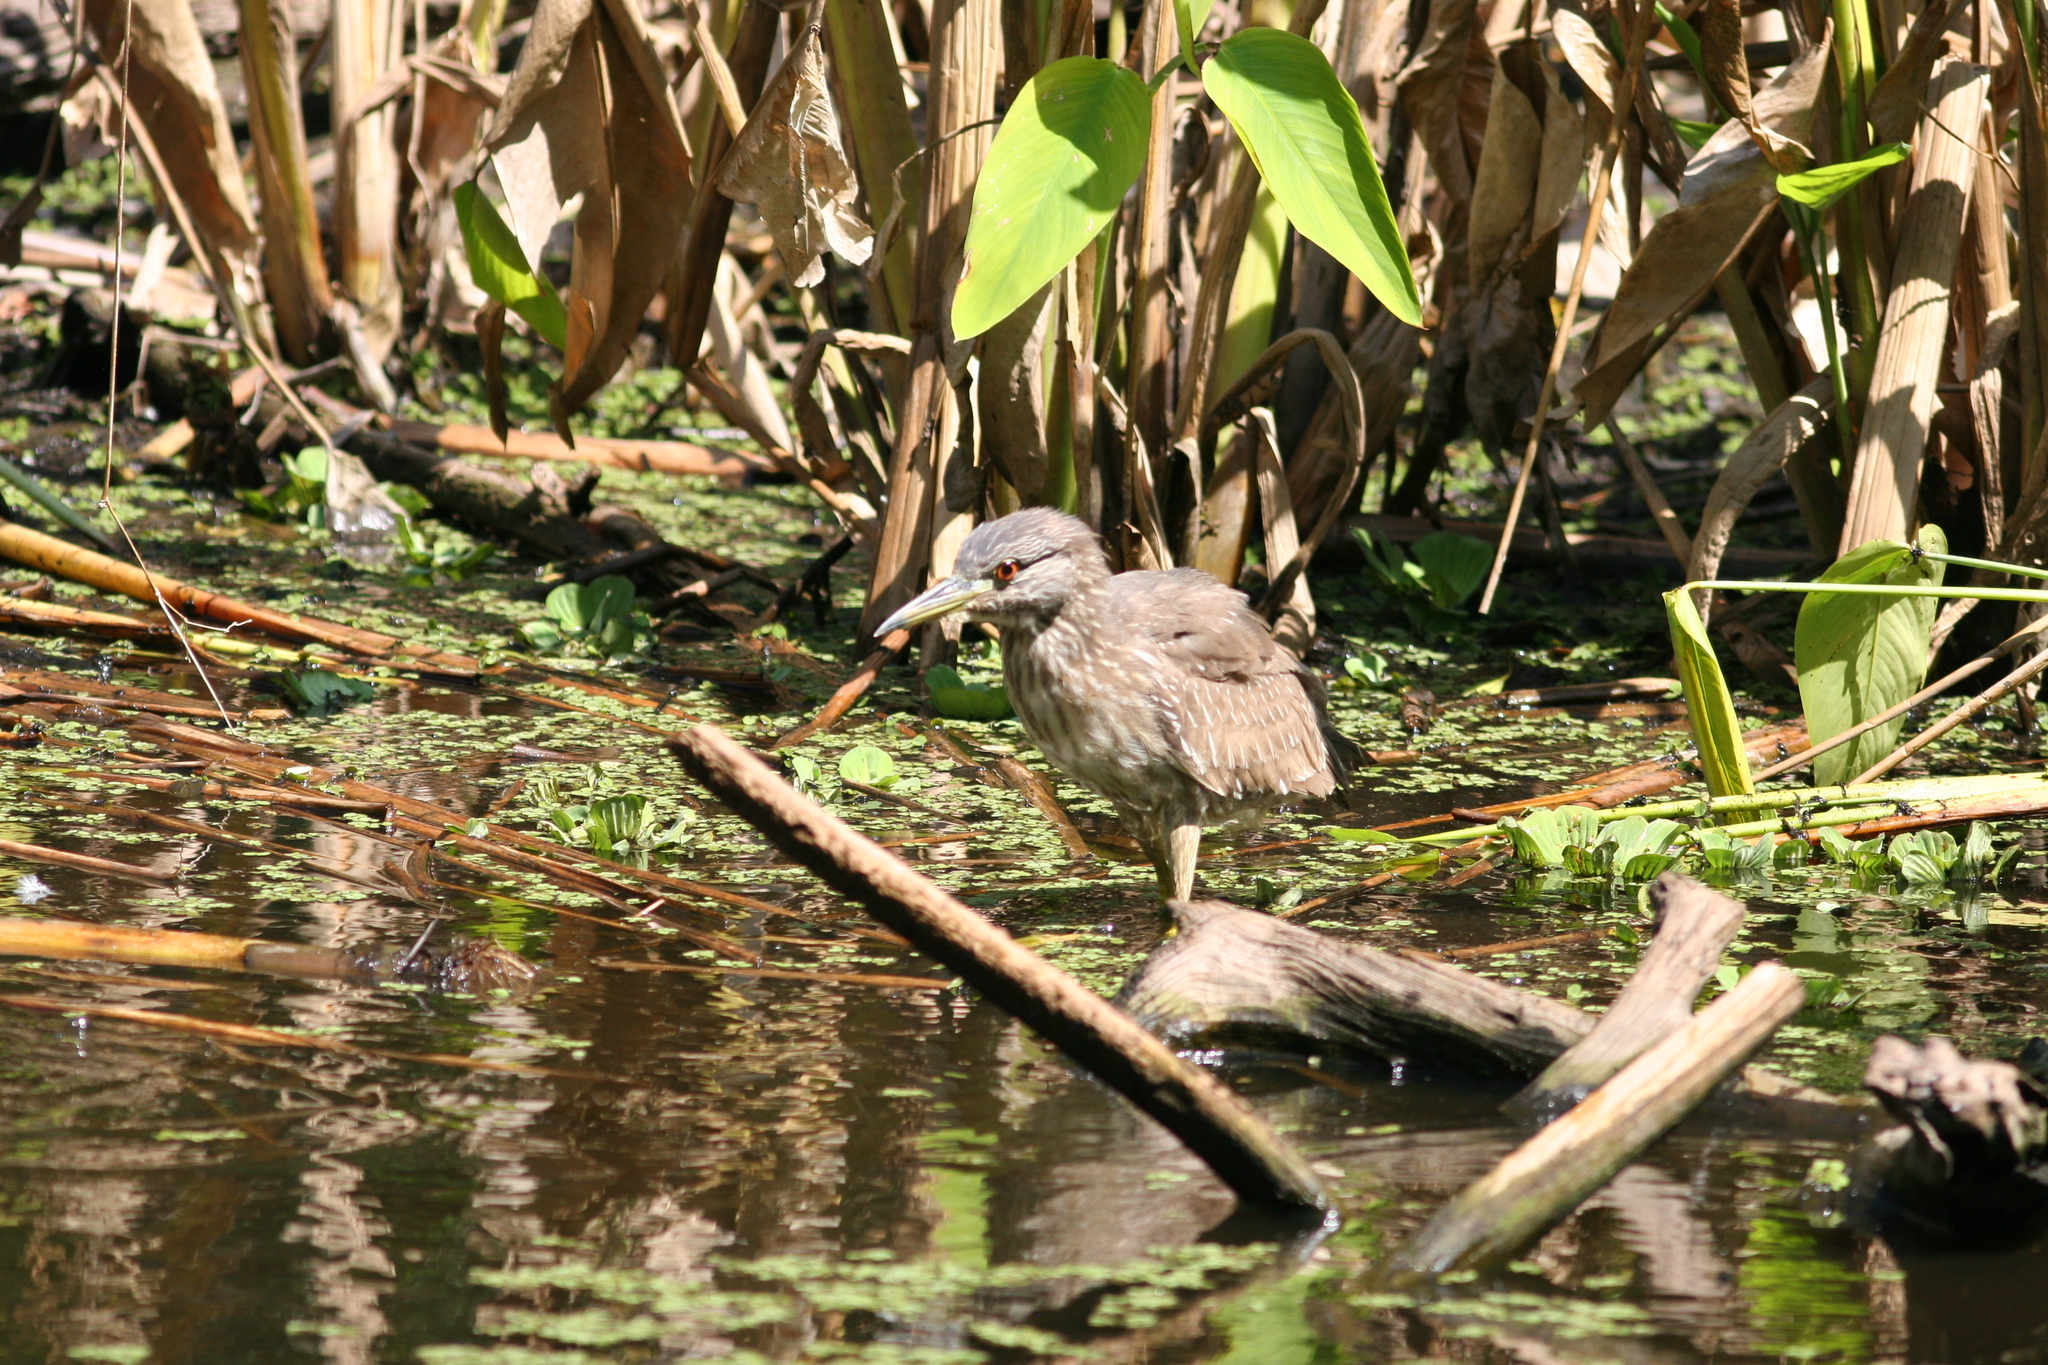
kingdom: Animalia
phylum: Chordata
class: Aves
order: Pelecaniformes
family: Ardeidae
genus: Nycticorax
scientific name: Nycticorax nycticorax
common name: Black-crowned night heron
